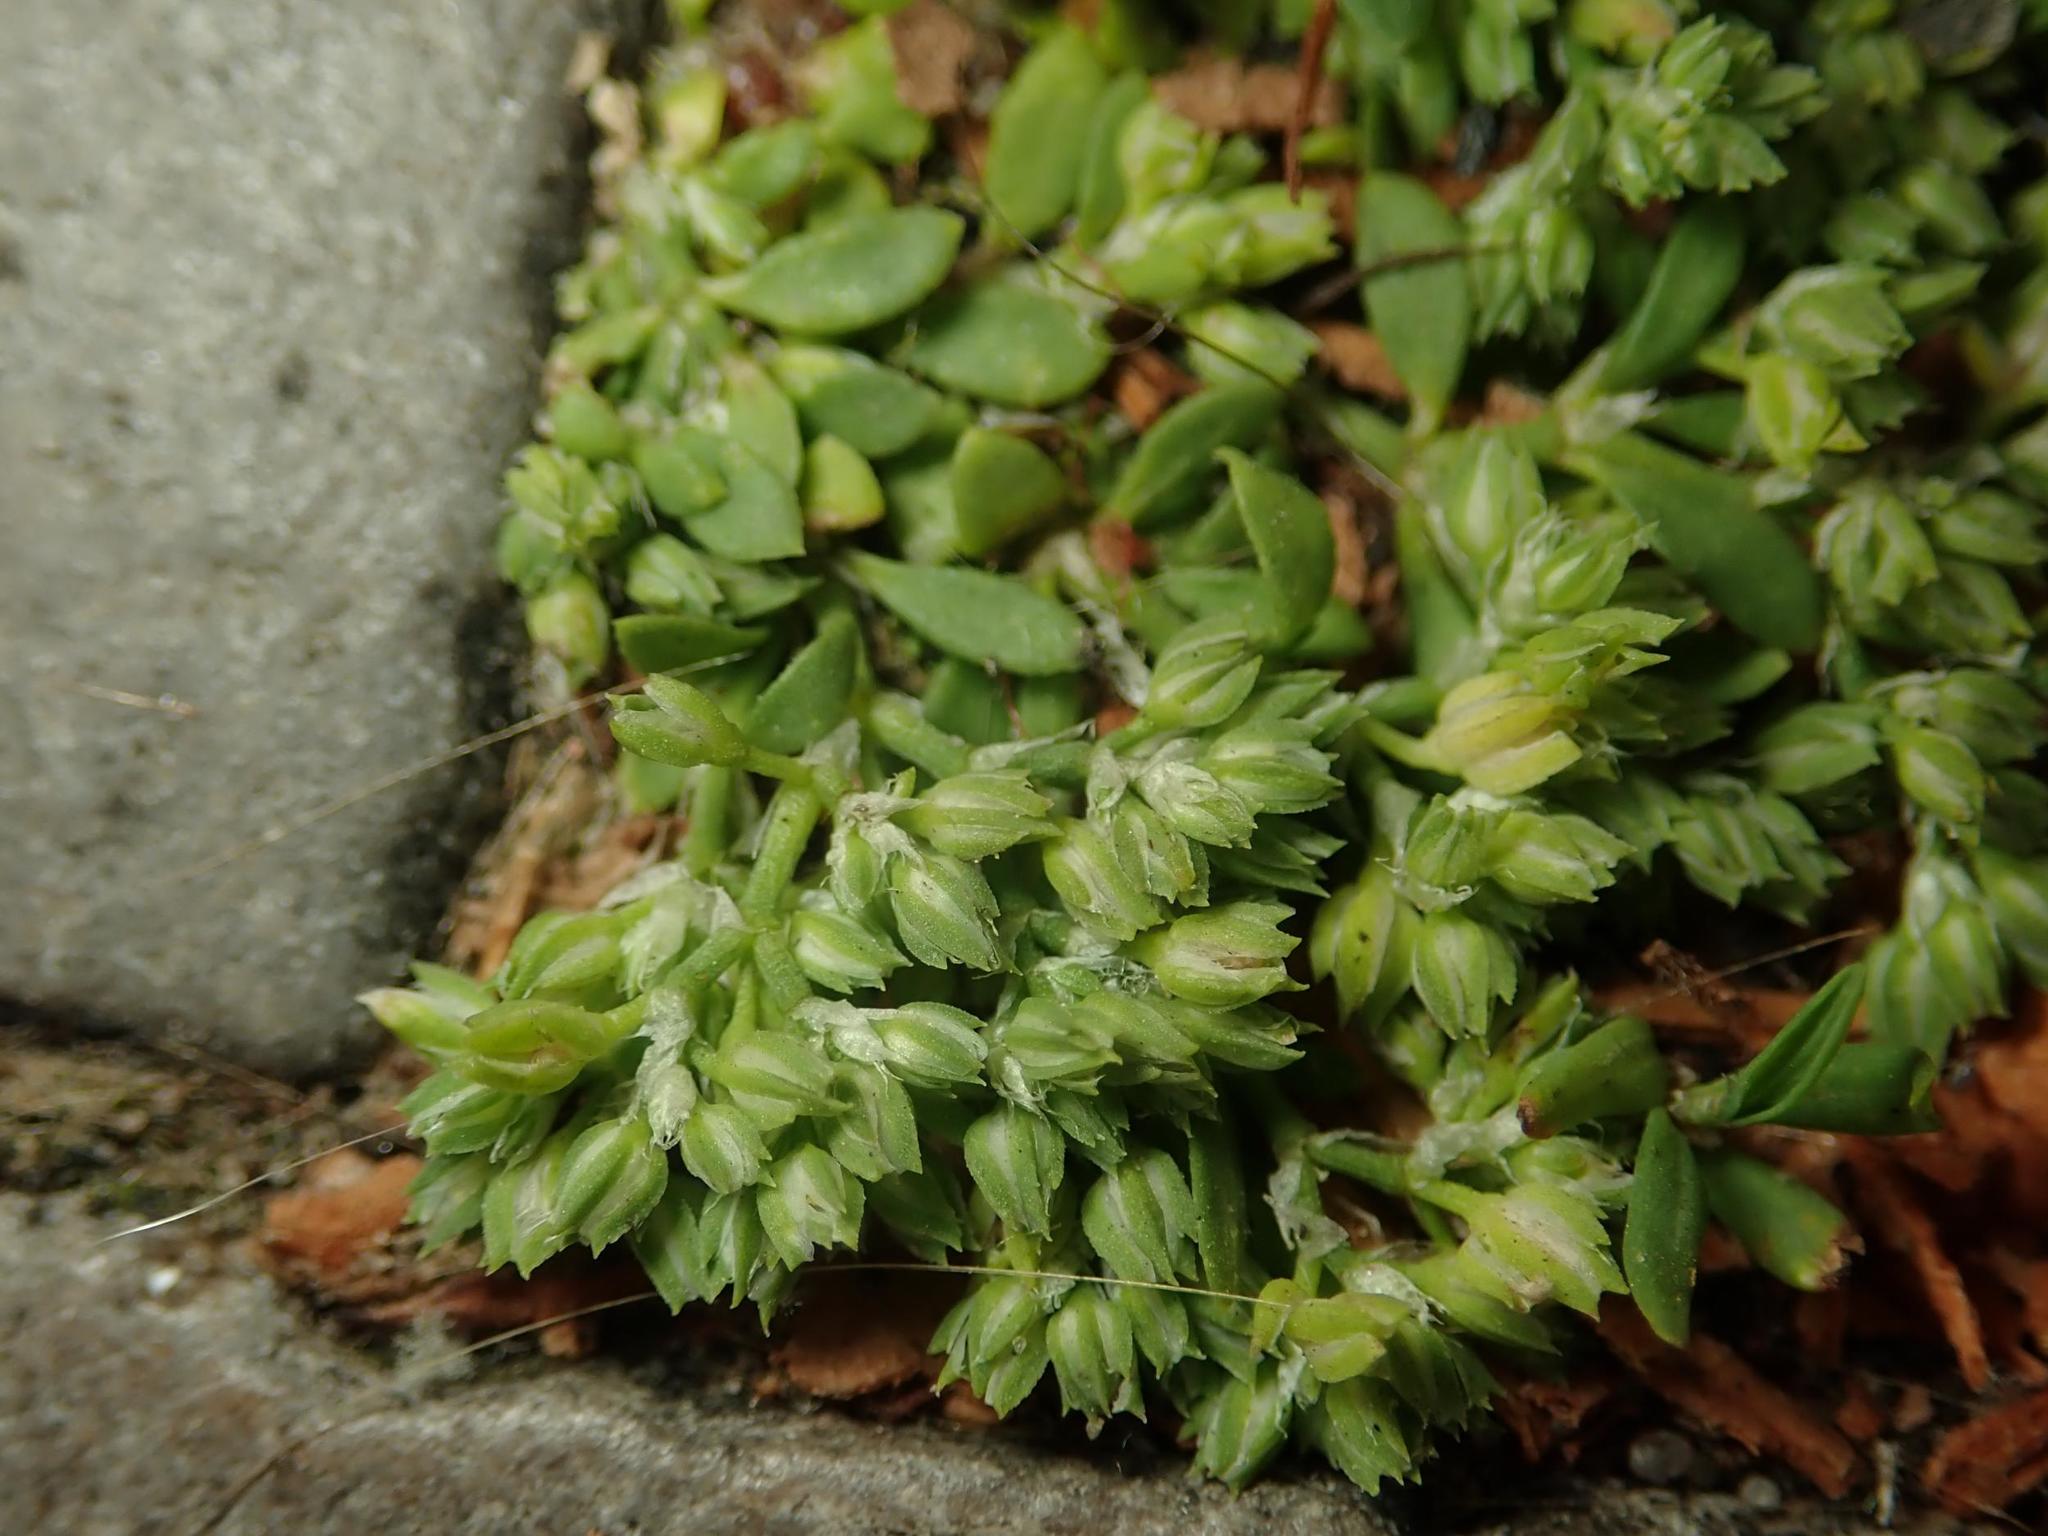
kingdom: Plantae
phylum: Tracheophyta
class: Magnoliopsida
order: Caryophyllales
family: Caryophyllaceae
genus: Polycarpon
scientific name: Polycarpon tetraphyllum
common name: Four-leaved all-seed
